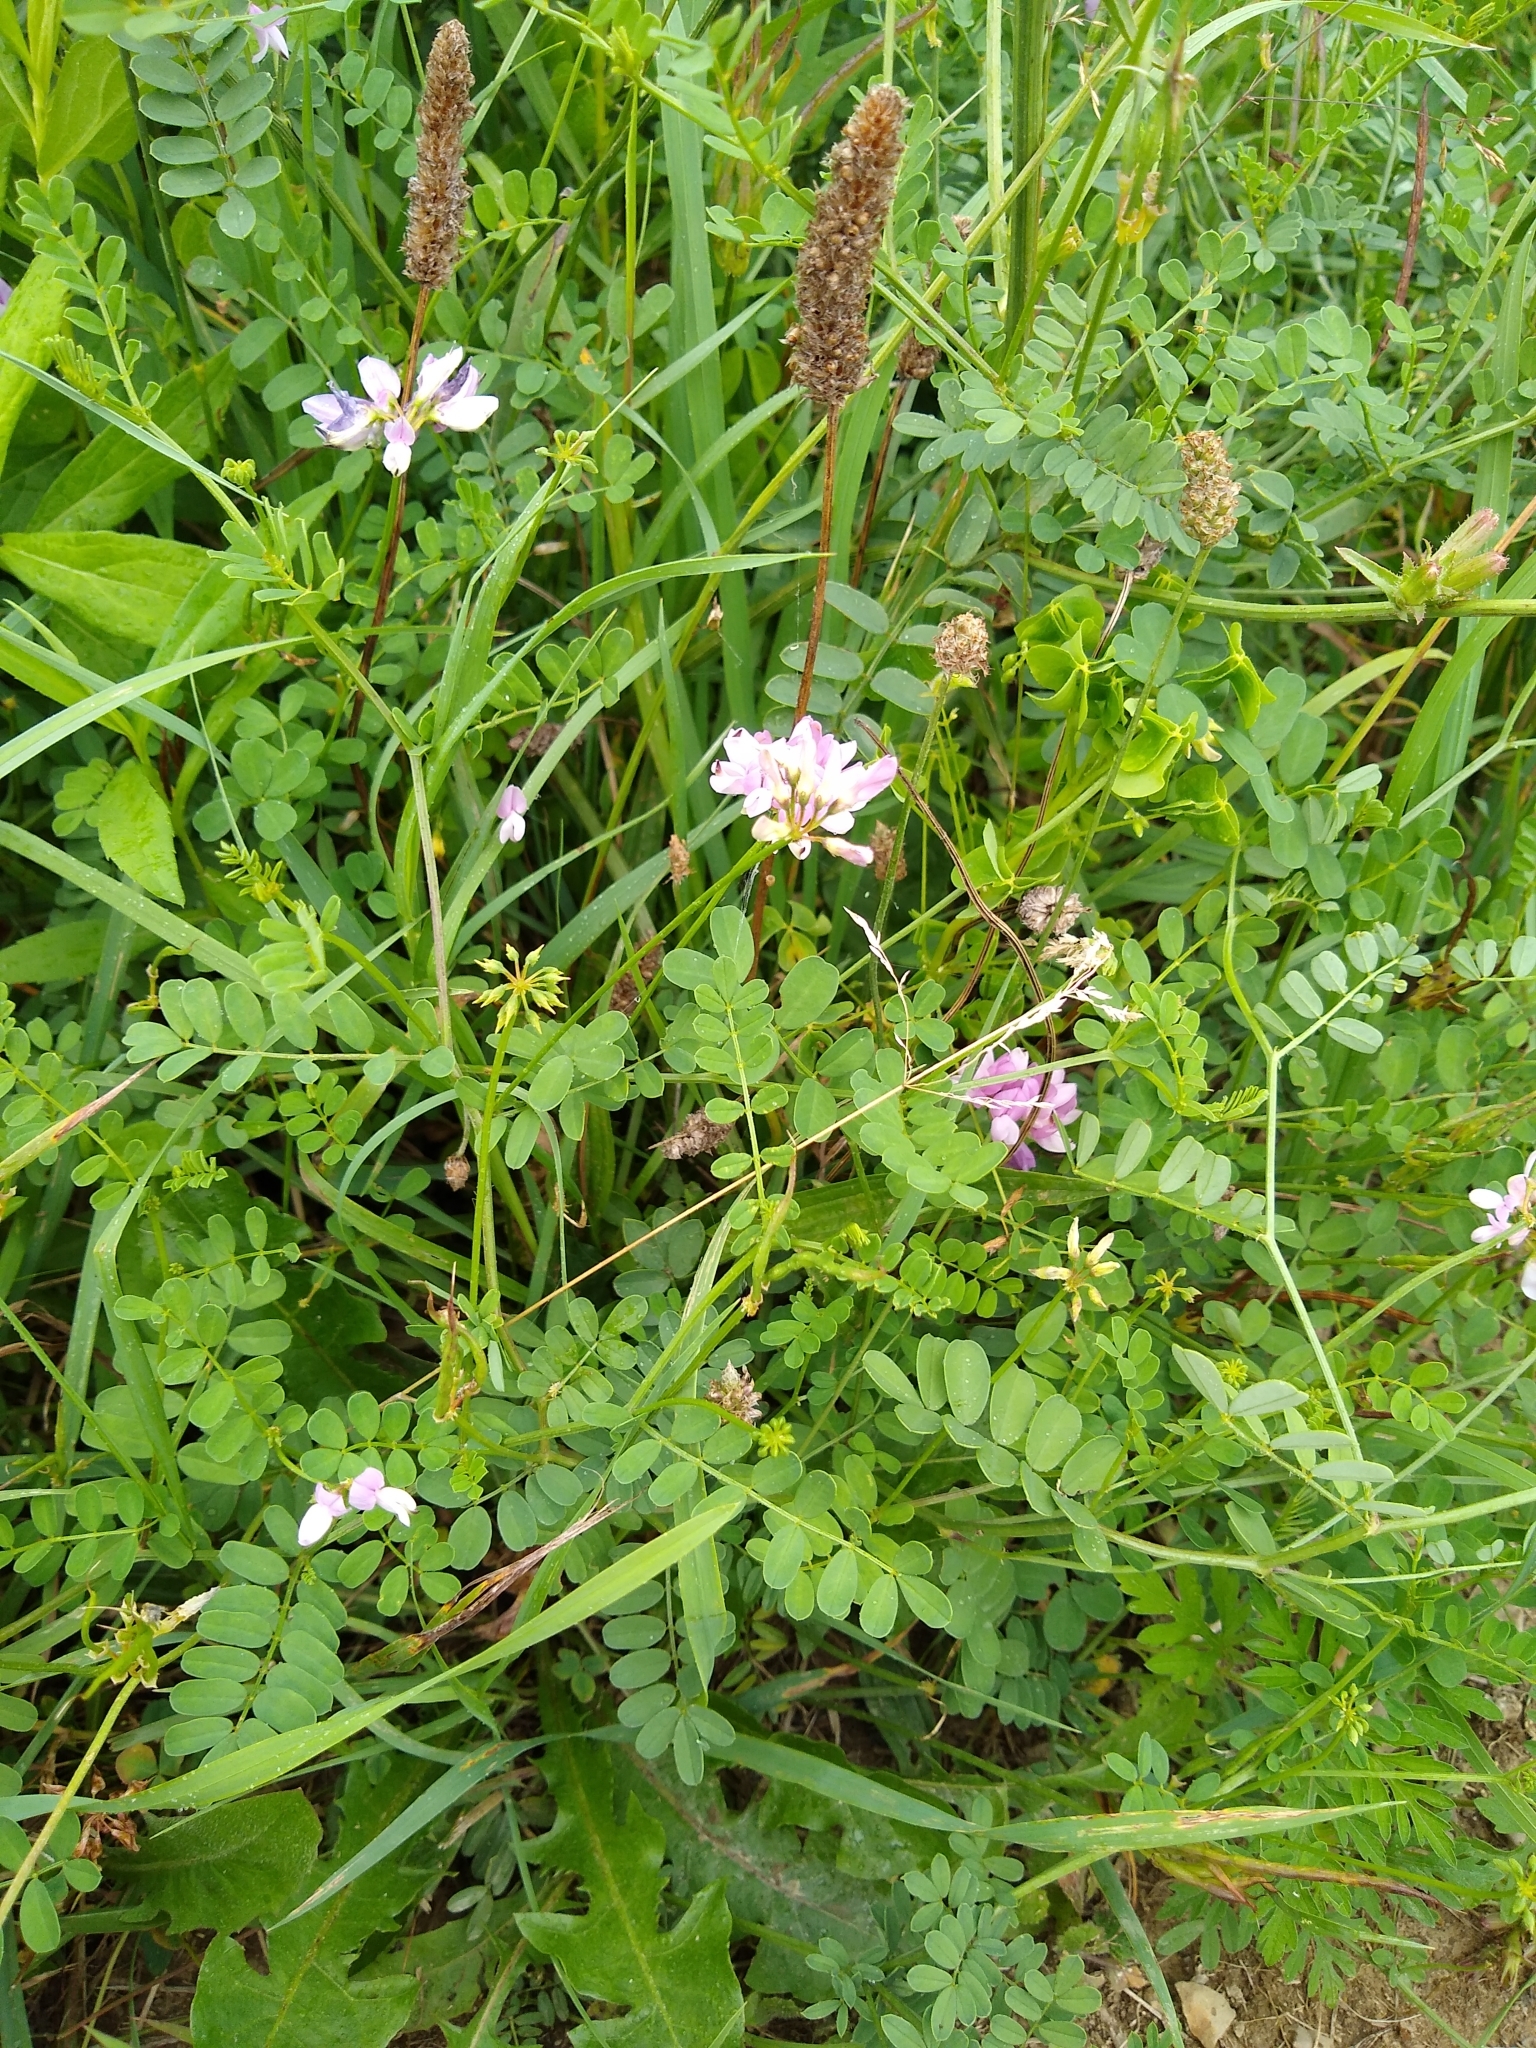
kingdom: Plantae
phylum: Tracheophyta
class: Magnoliopsida
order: Fabales
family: Fabaceae
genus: Coronilla
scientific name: Coronilla varia
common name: Crownvetch
